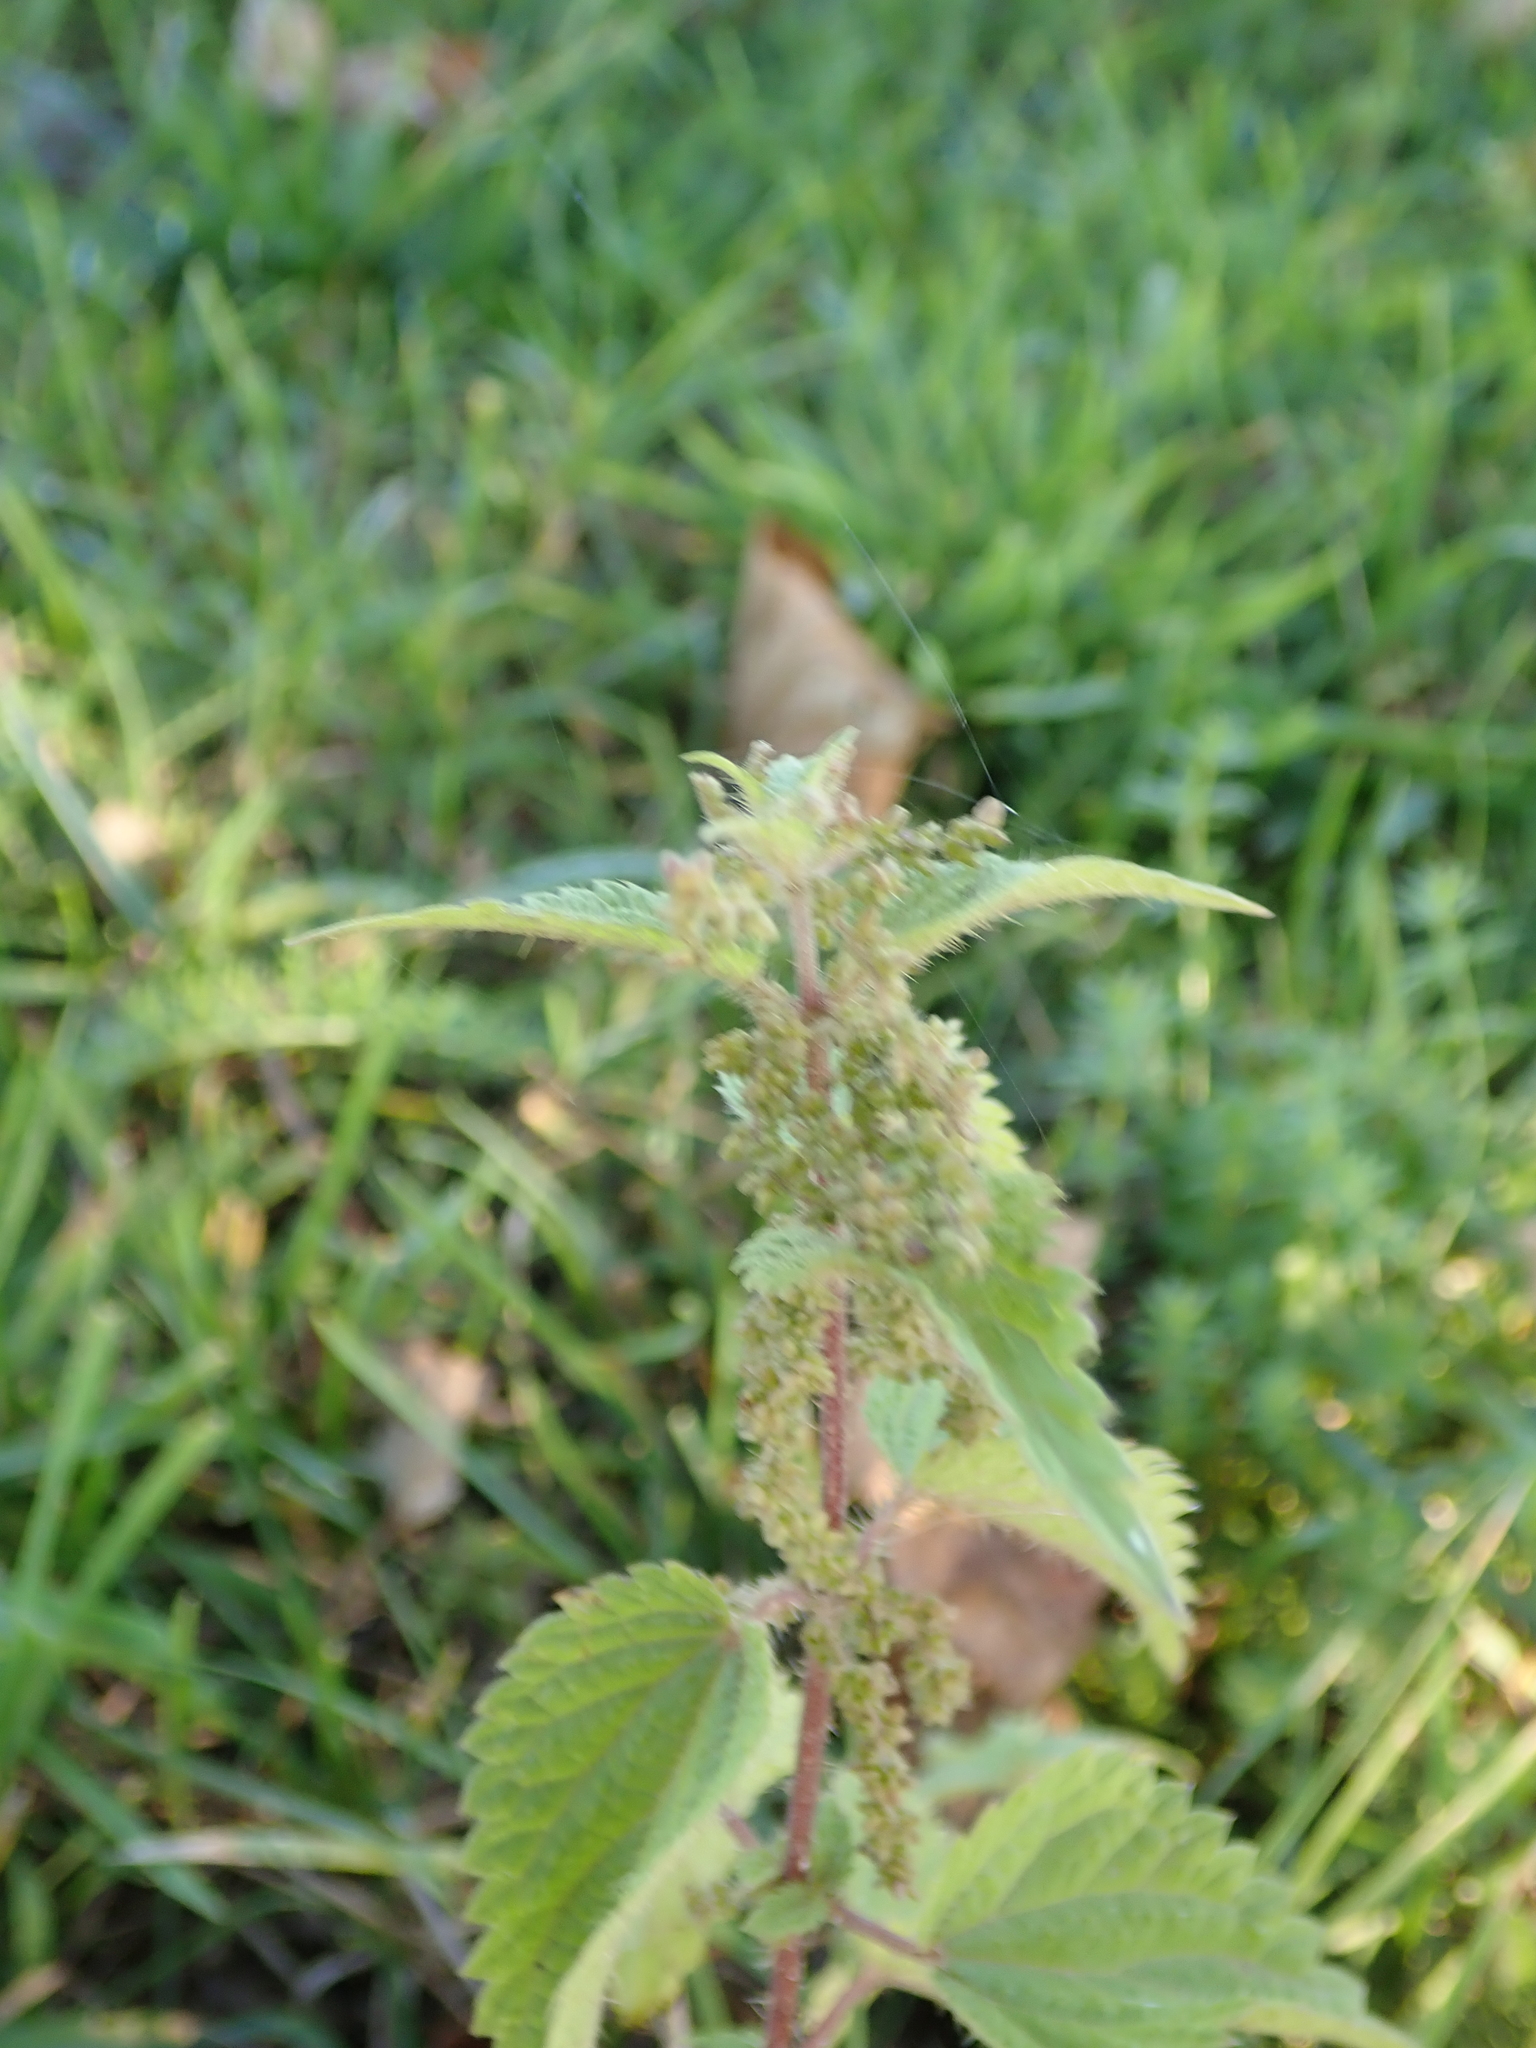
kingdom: Plantae
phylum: Tracheophyta
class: Magnoliopsida
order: Rosales
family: Urticaceae
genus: Urtica
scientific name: Urtica dioica
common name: Common nettle
